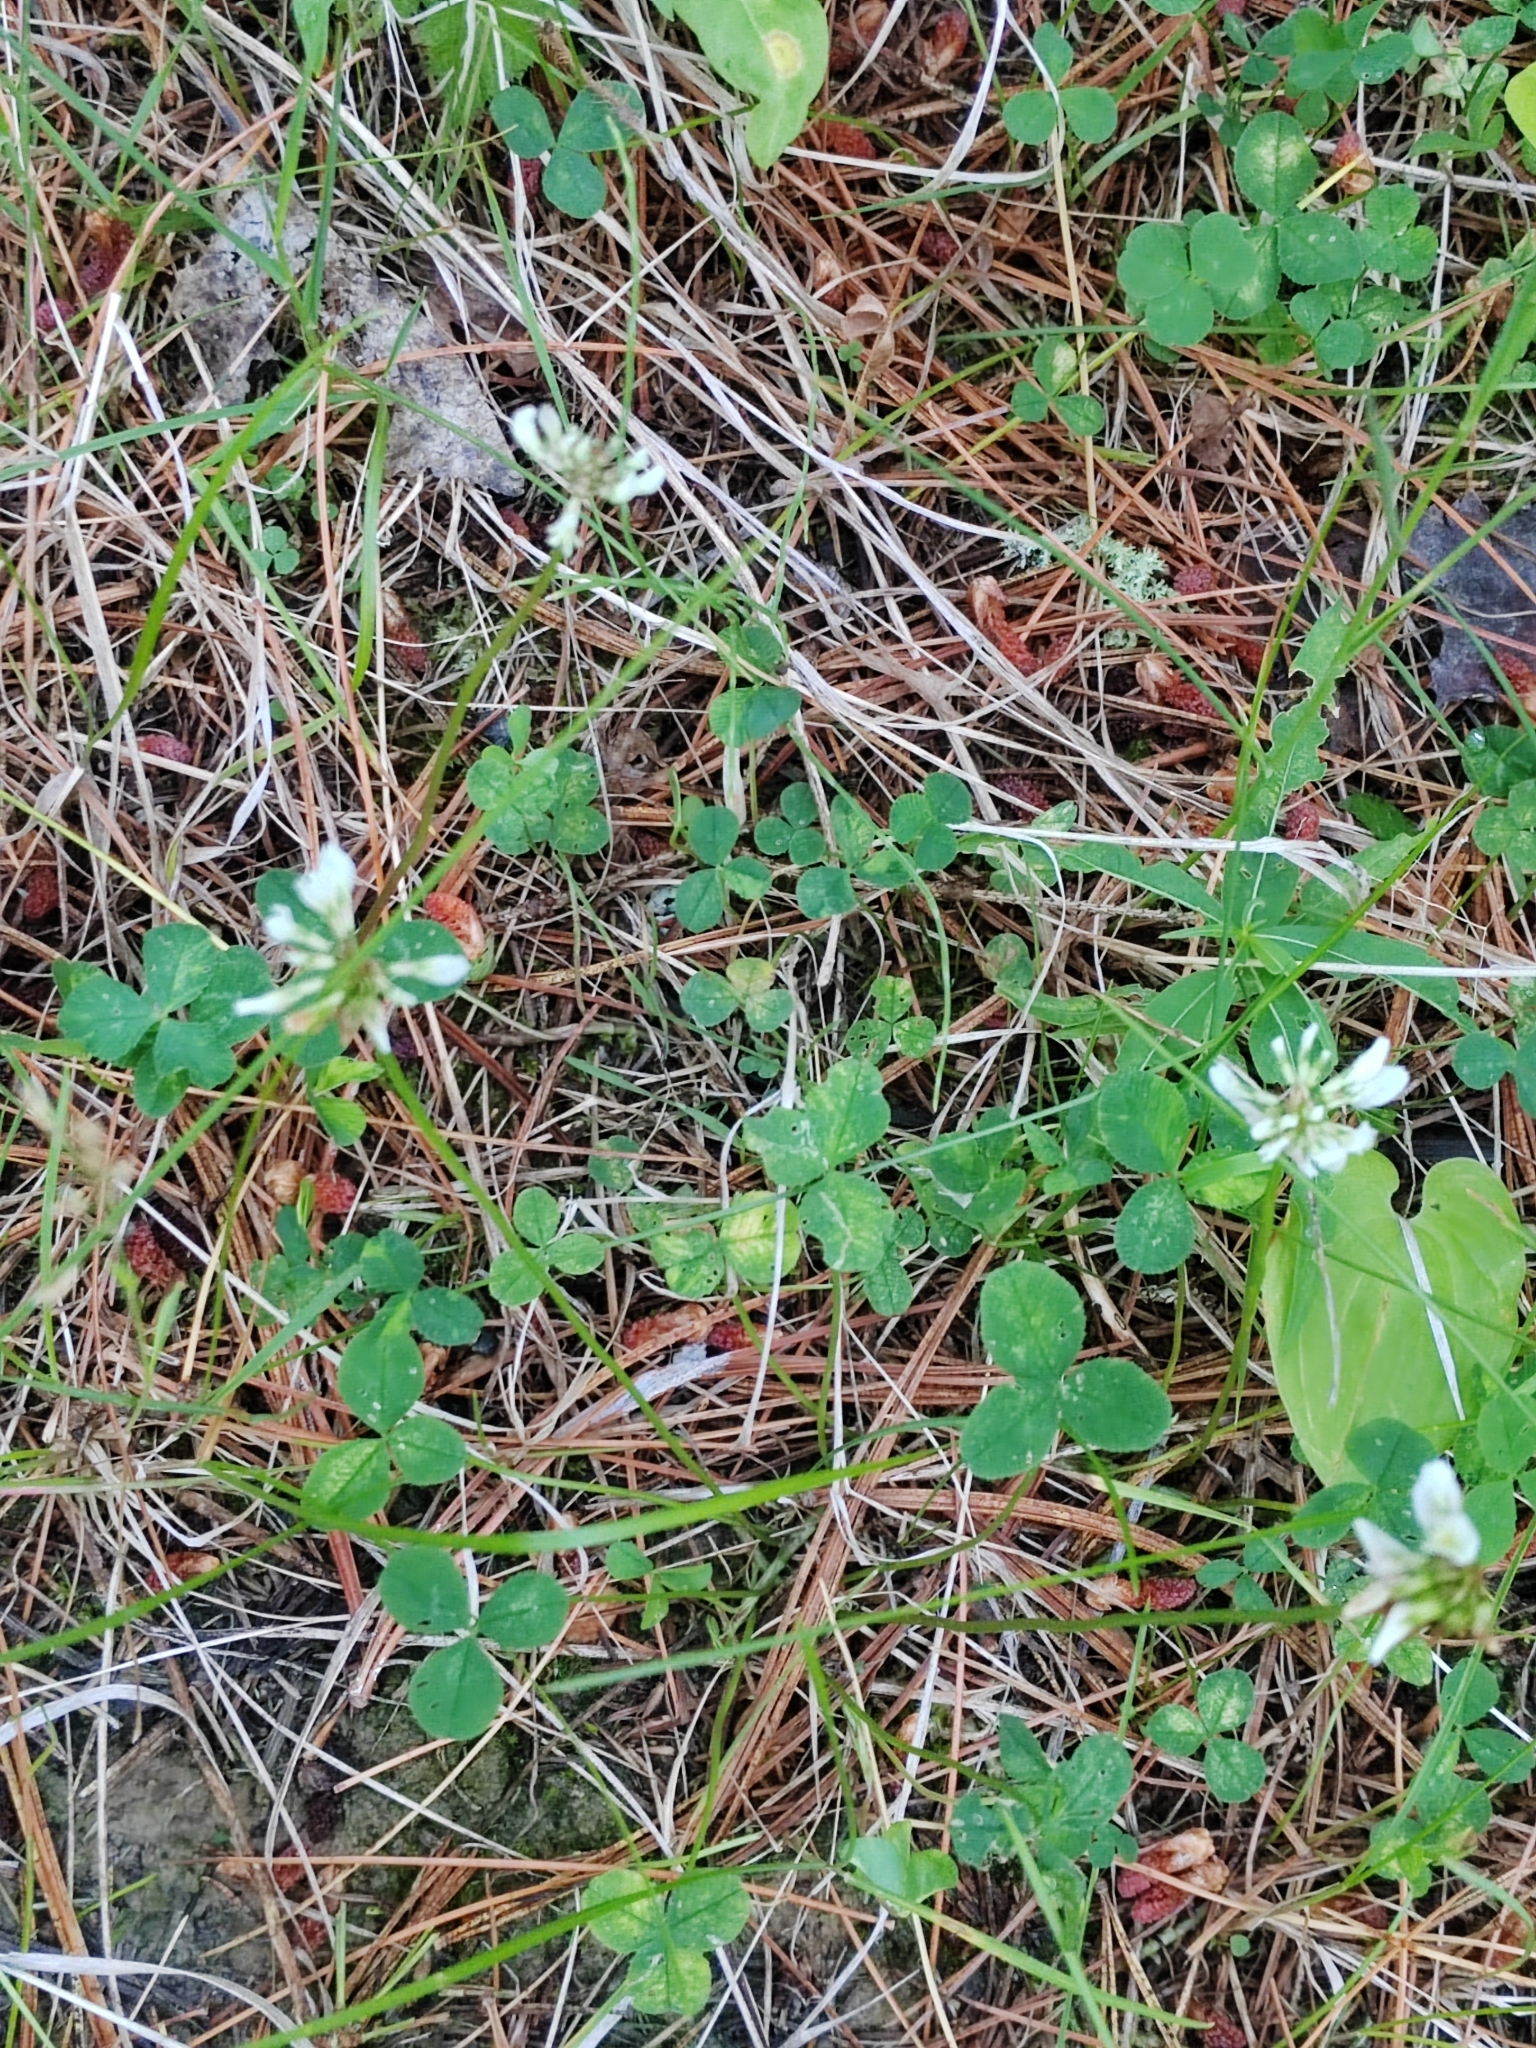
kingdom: Plantae
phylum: Tracheophyta
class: Magnoliopsida
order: Fabales
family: Fabaceae
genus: Trifolium
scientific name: Trifolium repens
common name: White clover
